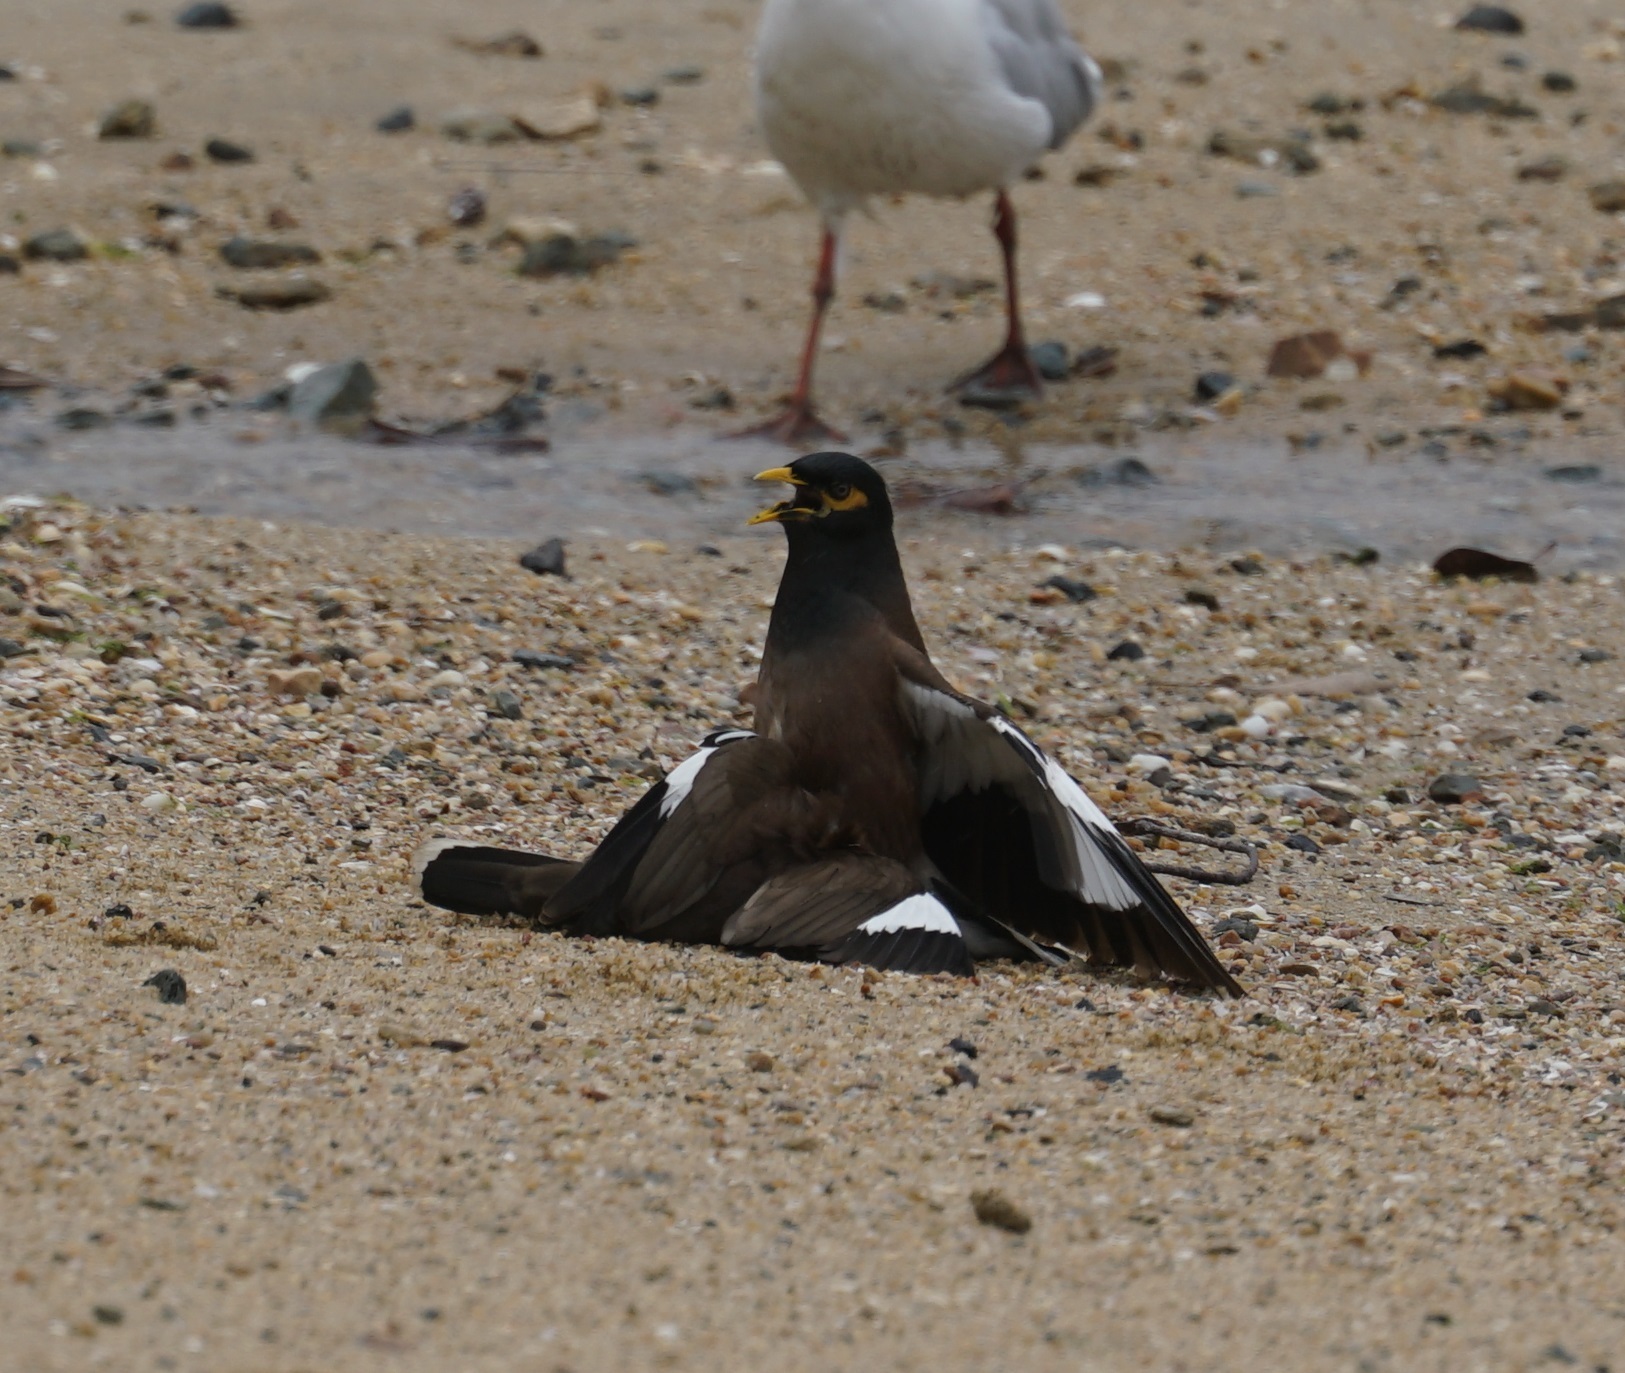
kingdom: Animalia
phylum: Chordata
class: Aves
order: Passeriformes
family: Sturnidae
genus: Acridotheres
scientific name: Acridotheres tristis
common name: Common myna
